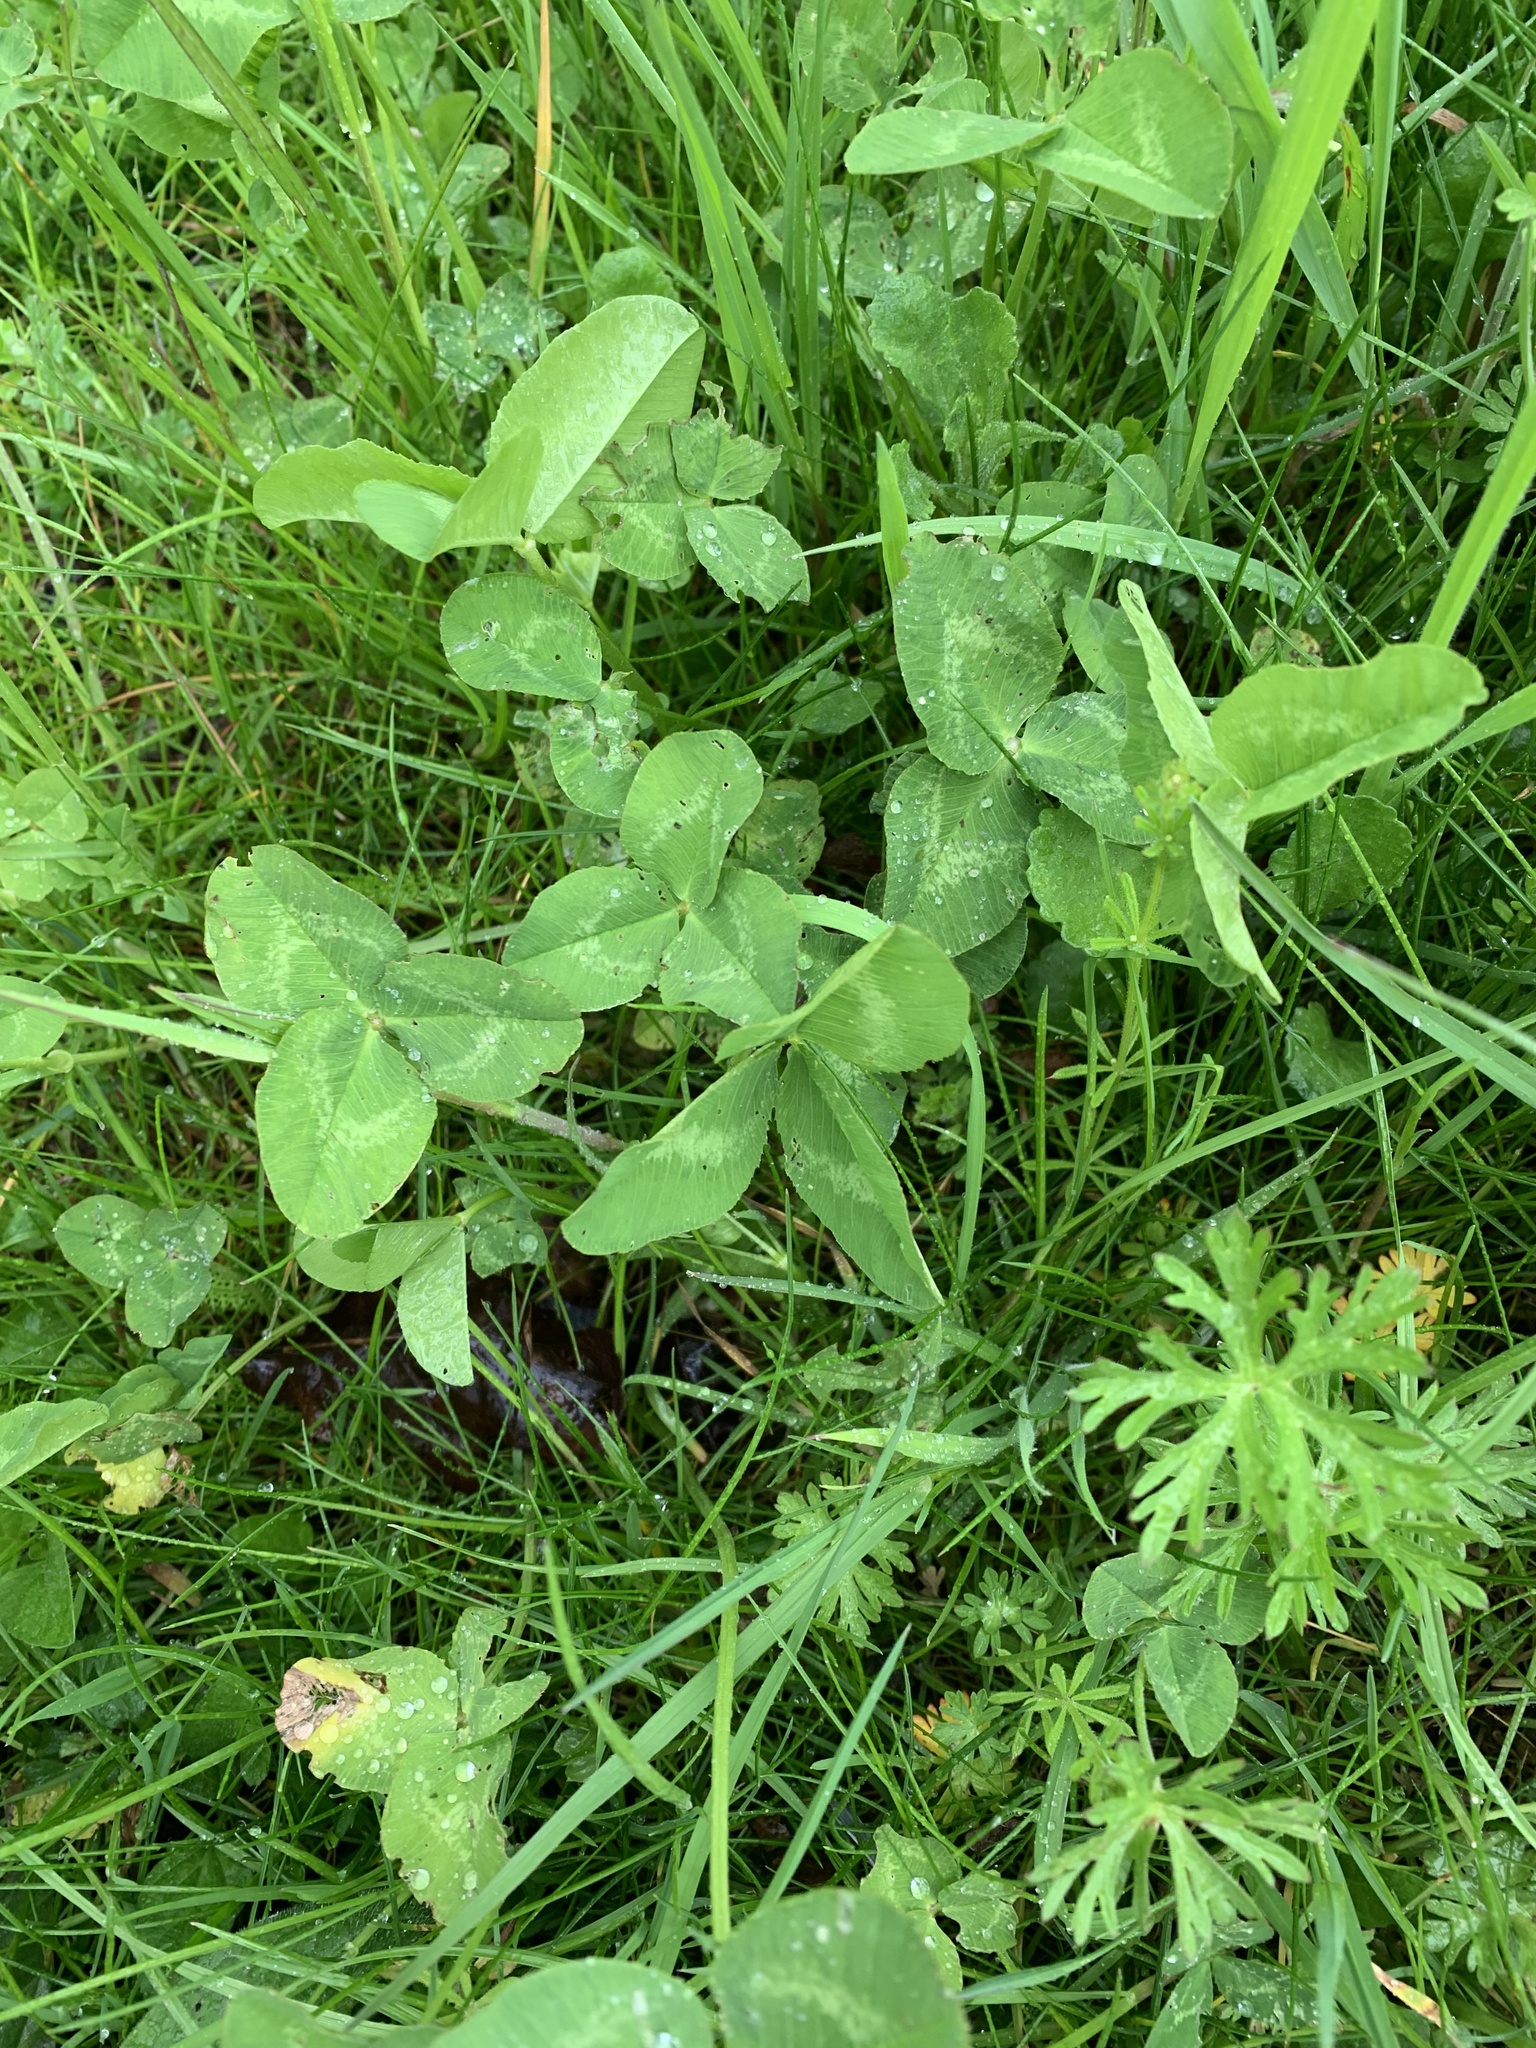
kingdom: Plantae
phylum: Tracheophyta
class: Magnoliopsida
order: Fabales
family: Fabaceae
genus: Trifolium
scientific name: Trifolium pratense
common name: Red clover
